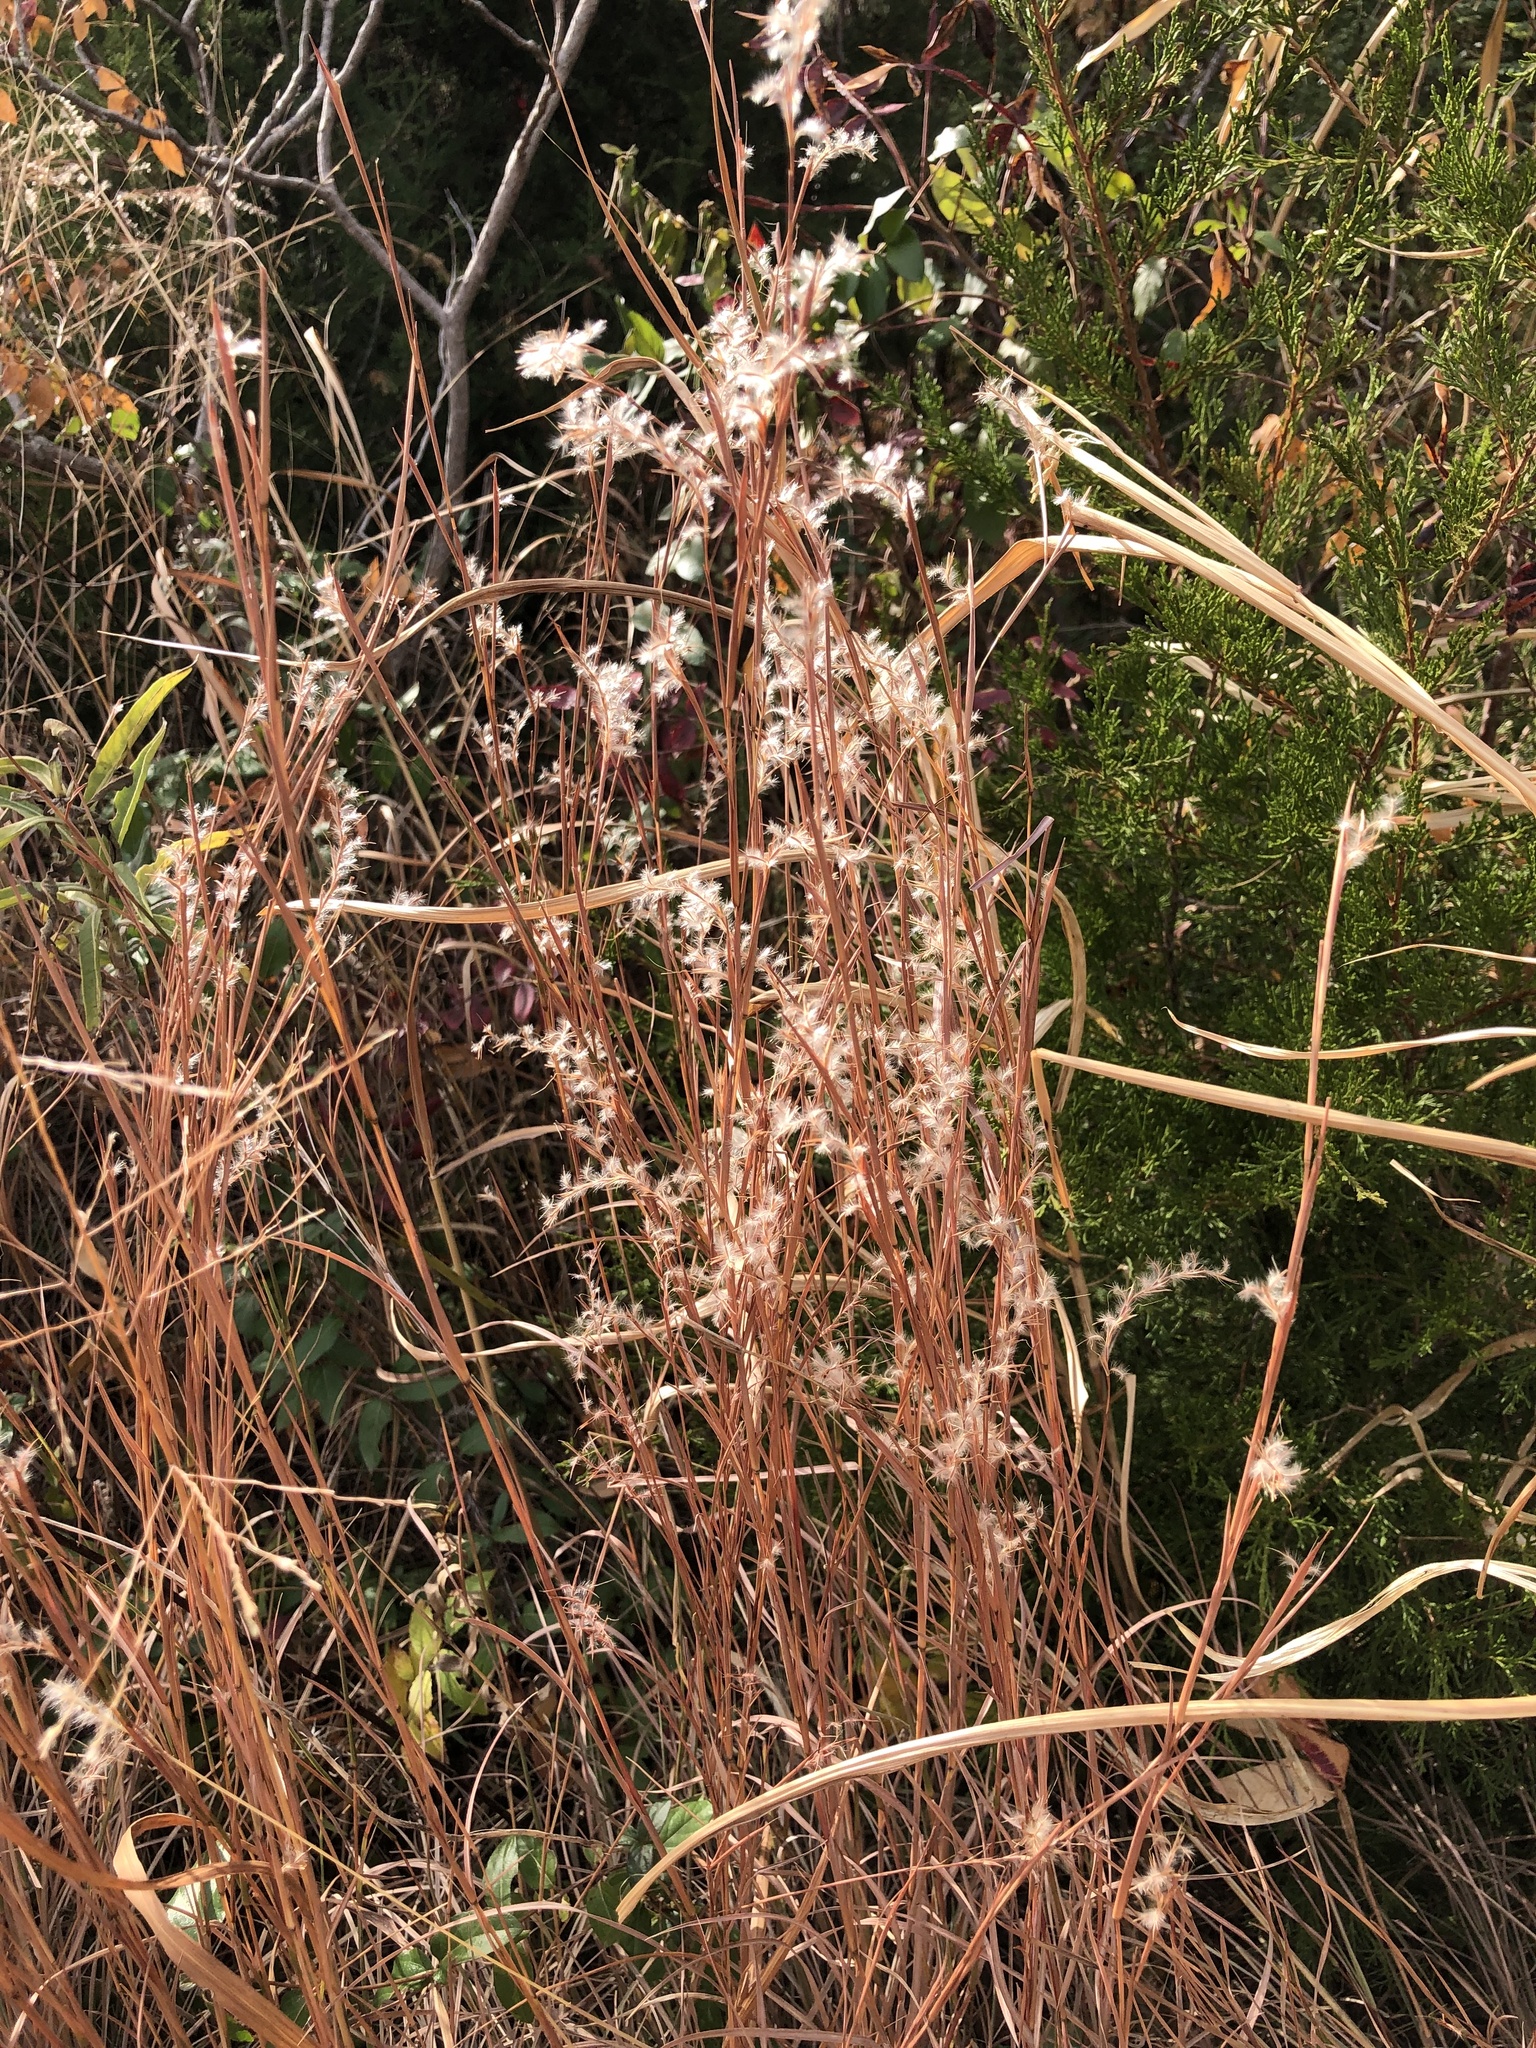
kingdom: Plantae
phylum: Tracheophyta
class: Liliopsida
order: Poales
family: Poaceae
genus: Schizachyrium
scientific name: Schizachyrium scoparium
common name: Little bluestem
